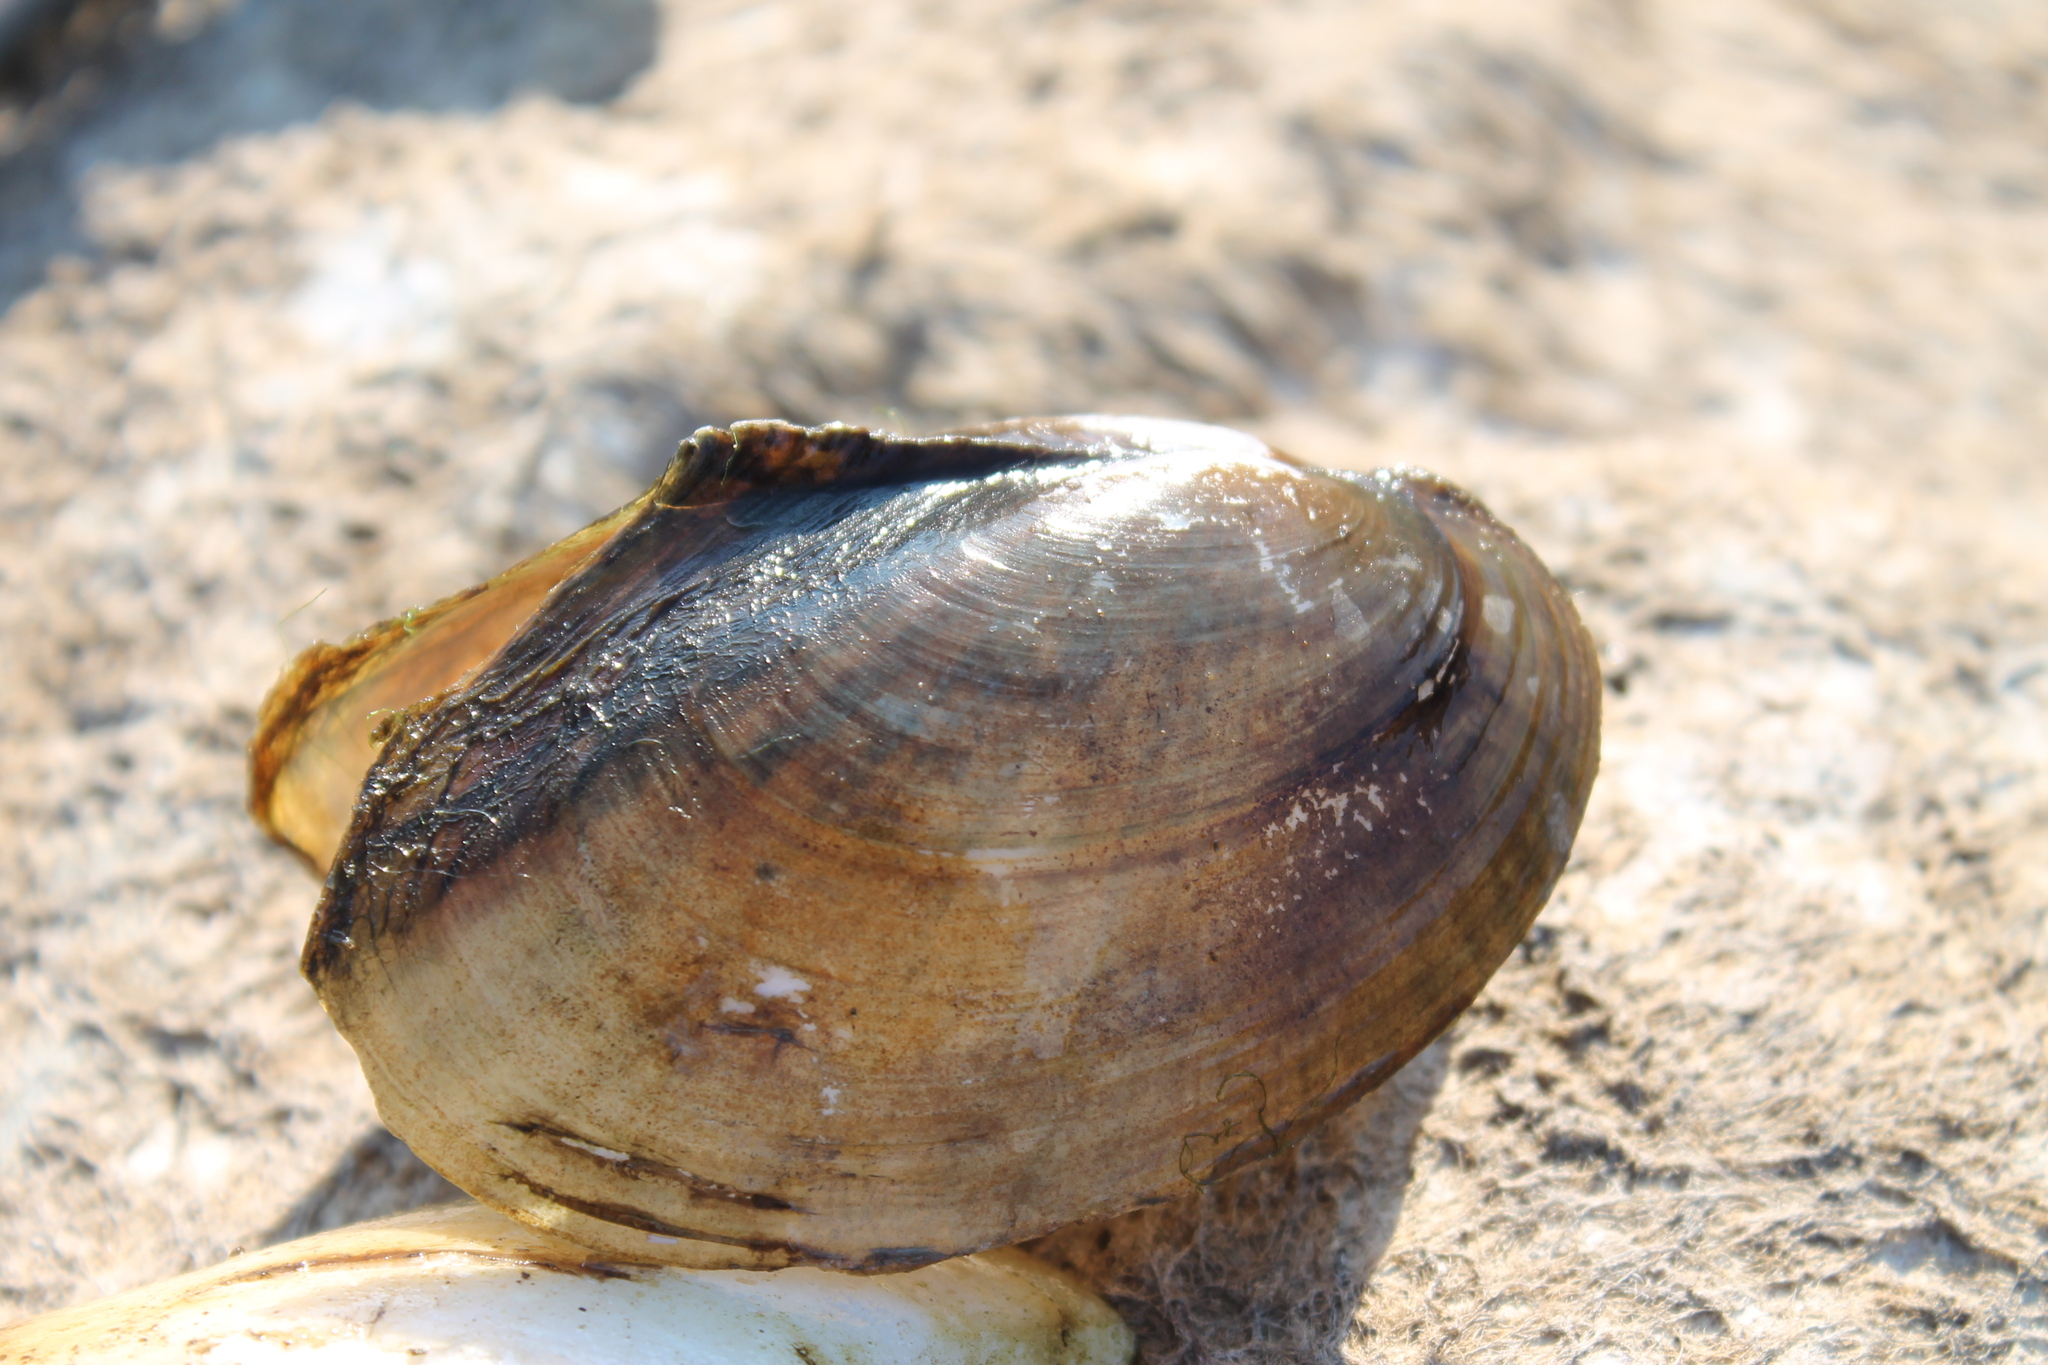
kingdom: Animalia
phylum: Mollusca
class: Bivalvia
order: Unionida
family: Unionidae
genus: Potamilus
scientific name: Potamilus fragilis
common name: Fragile papershell
